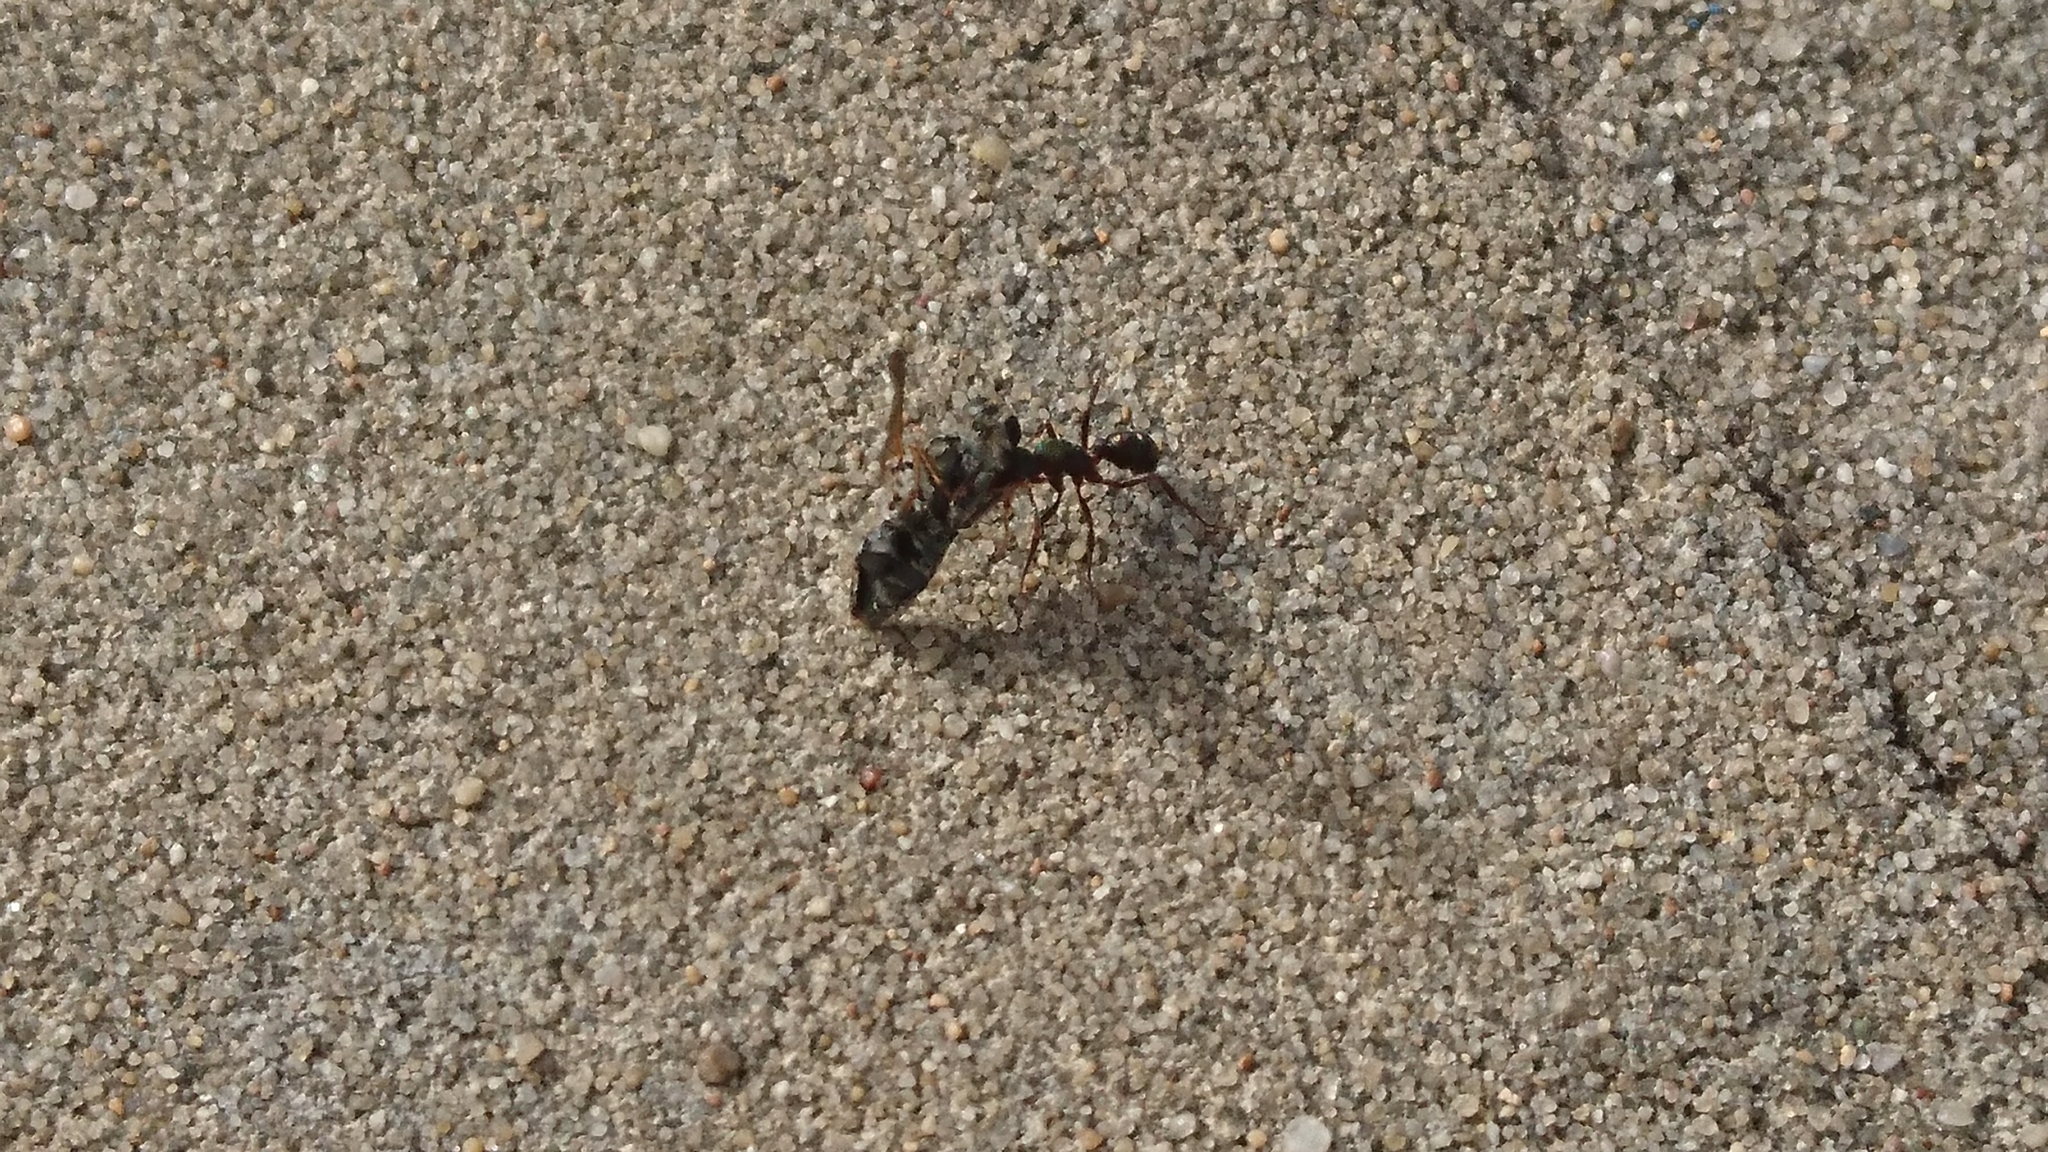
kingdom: Animalia
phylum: Arthropoda
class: Insecta
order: Hymenoptera
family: Formicidae
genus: Rhytidoponera
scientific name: Rhytidoponera metallica
